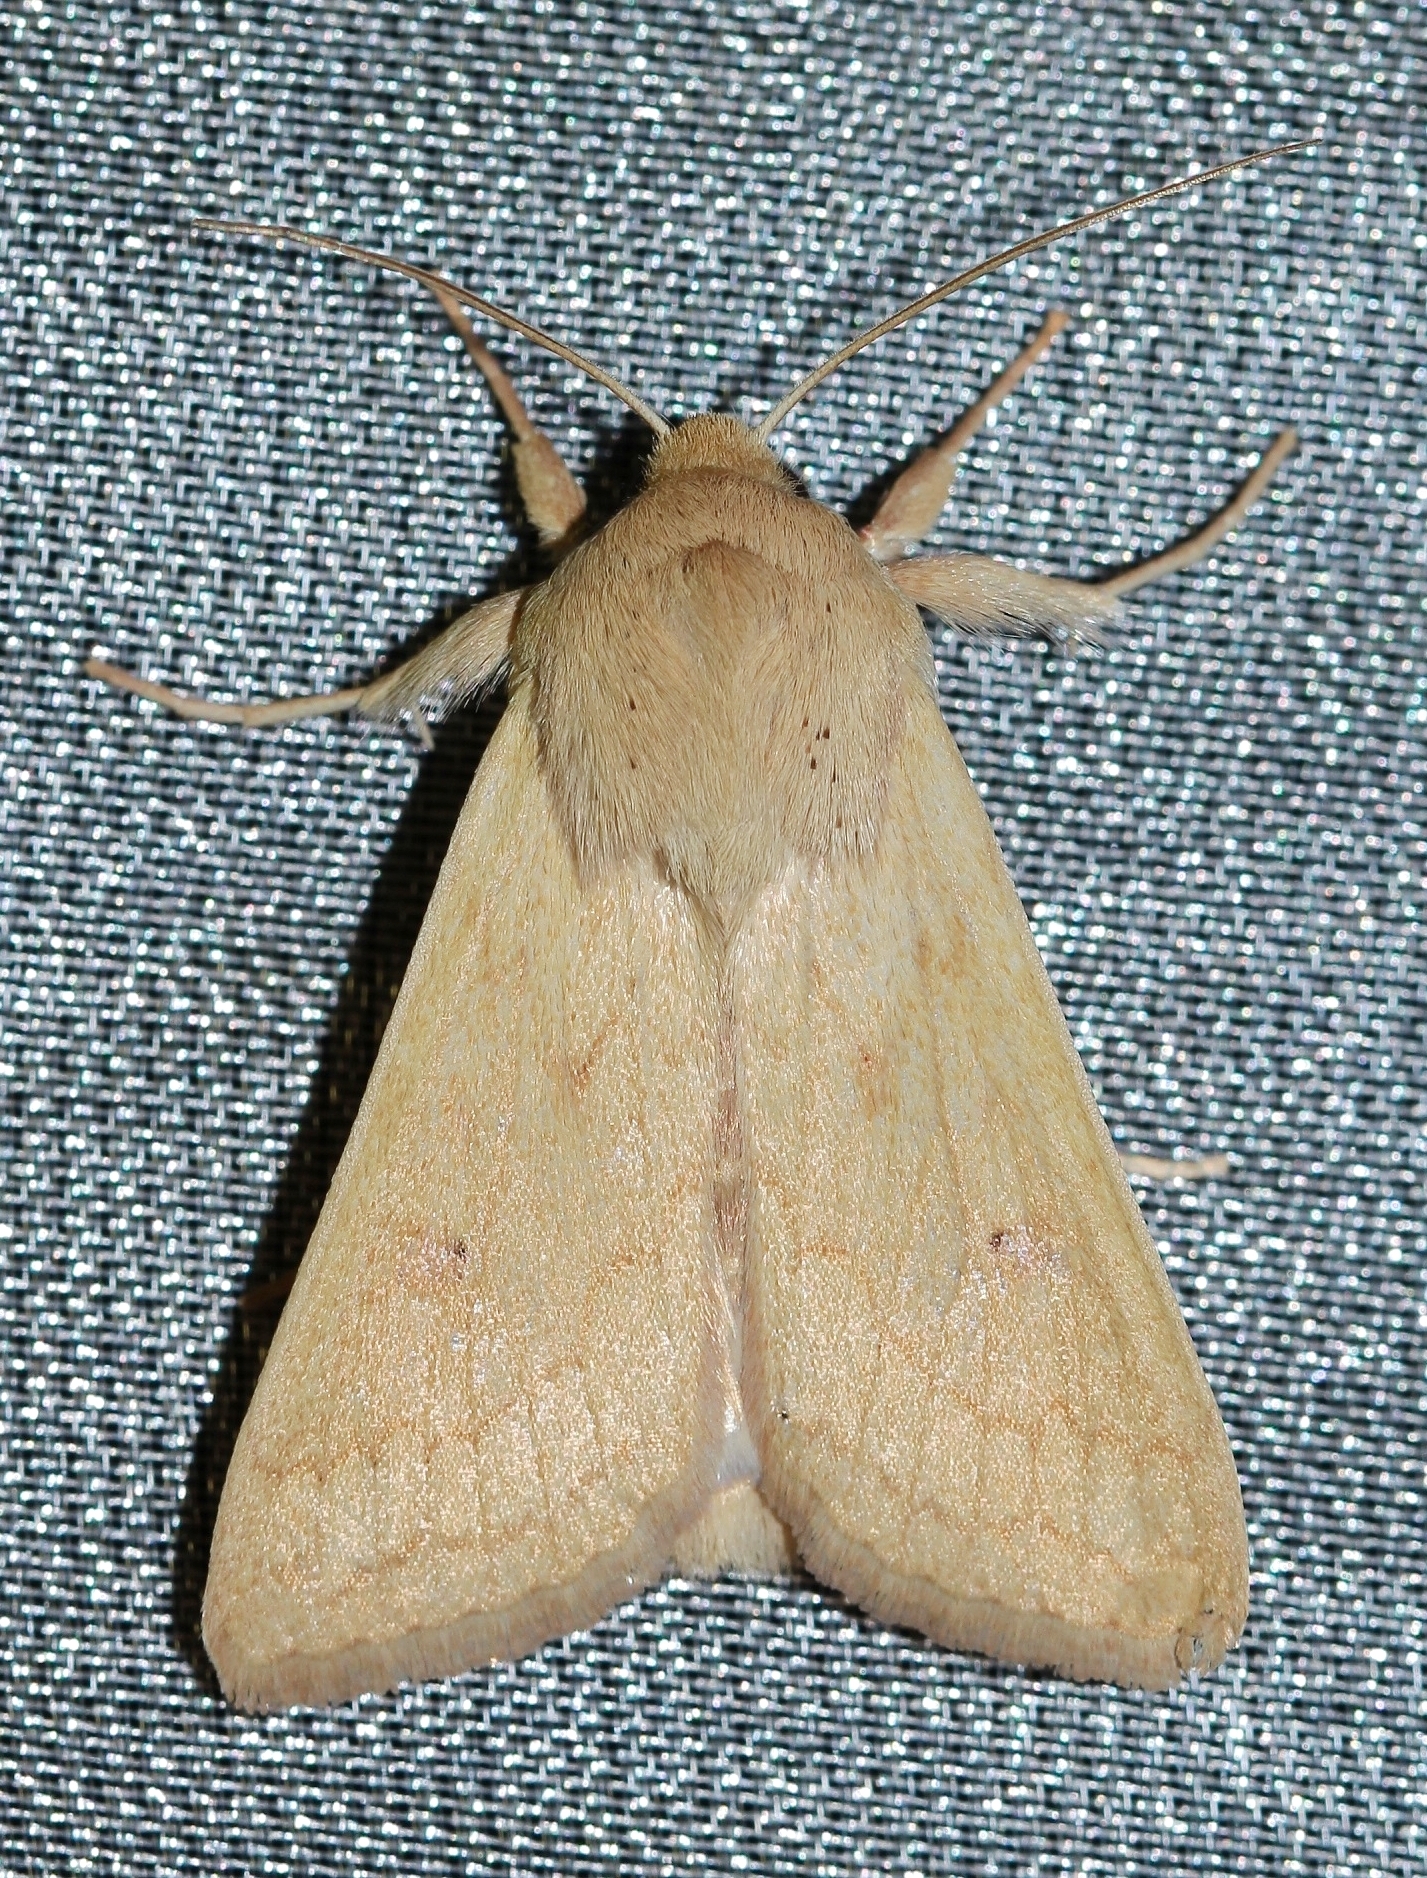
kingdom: Animalia
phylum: Arthropoda
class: Insecta
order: Lepidoptera
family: Noctuidae
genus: Mythimna
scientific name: Mythimna vitellina
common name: Delicate
